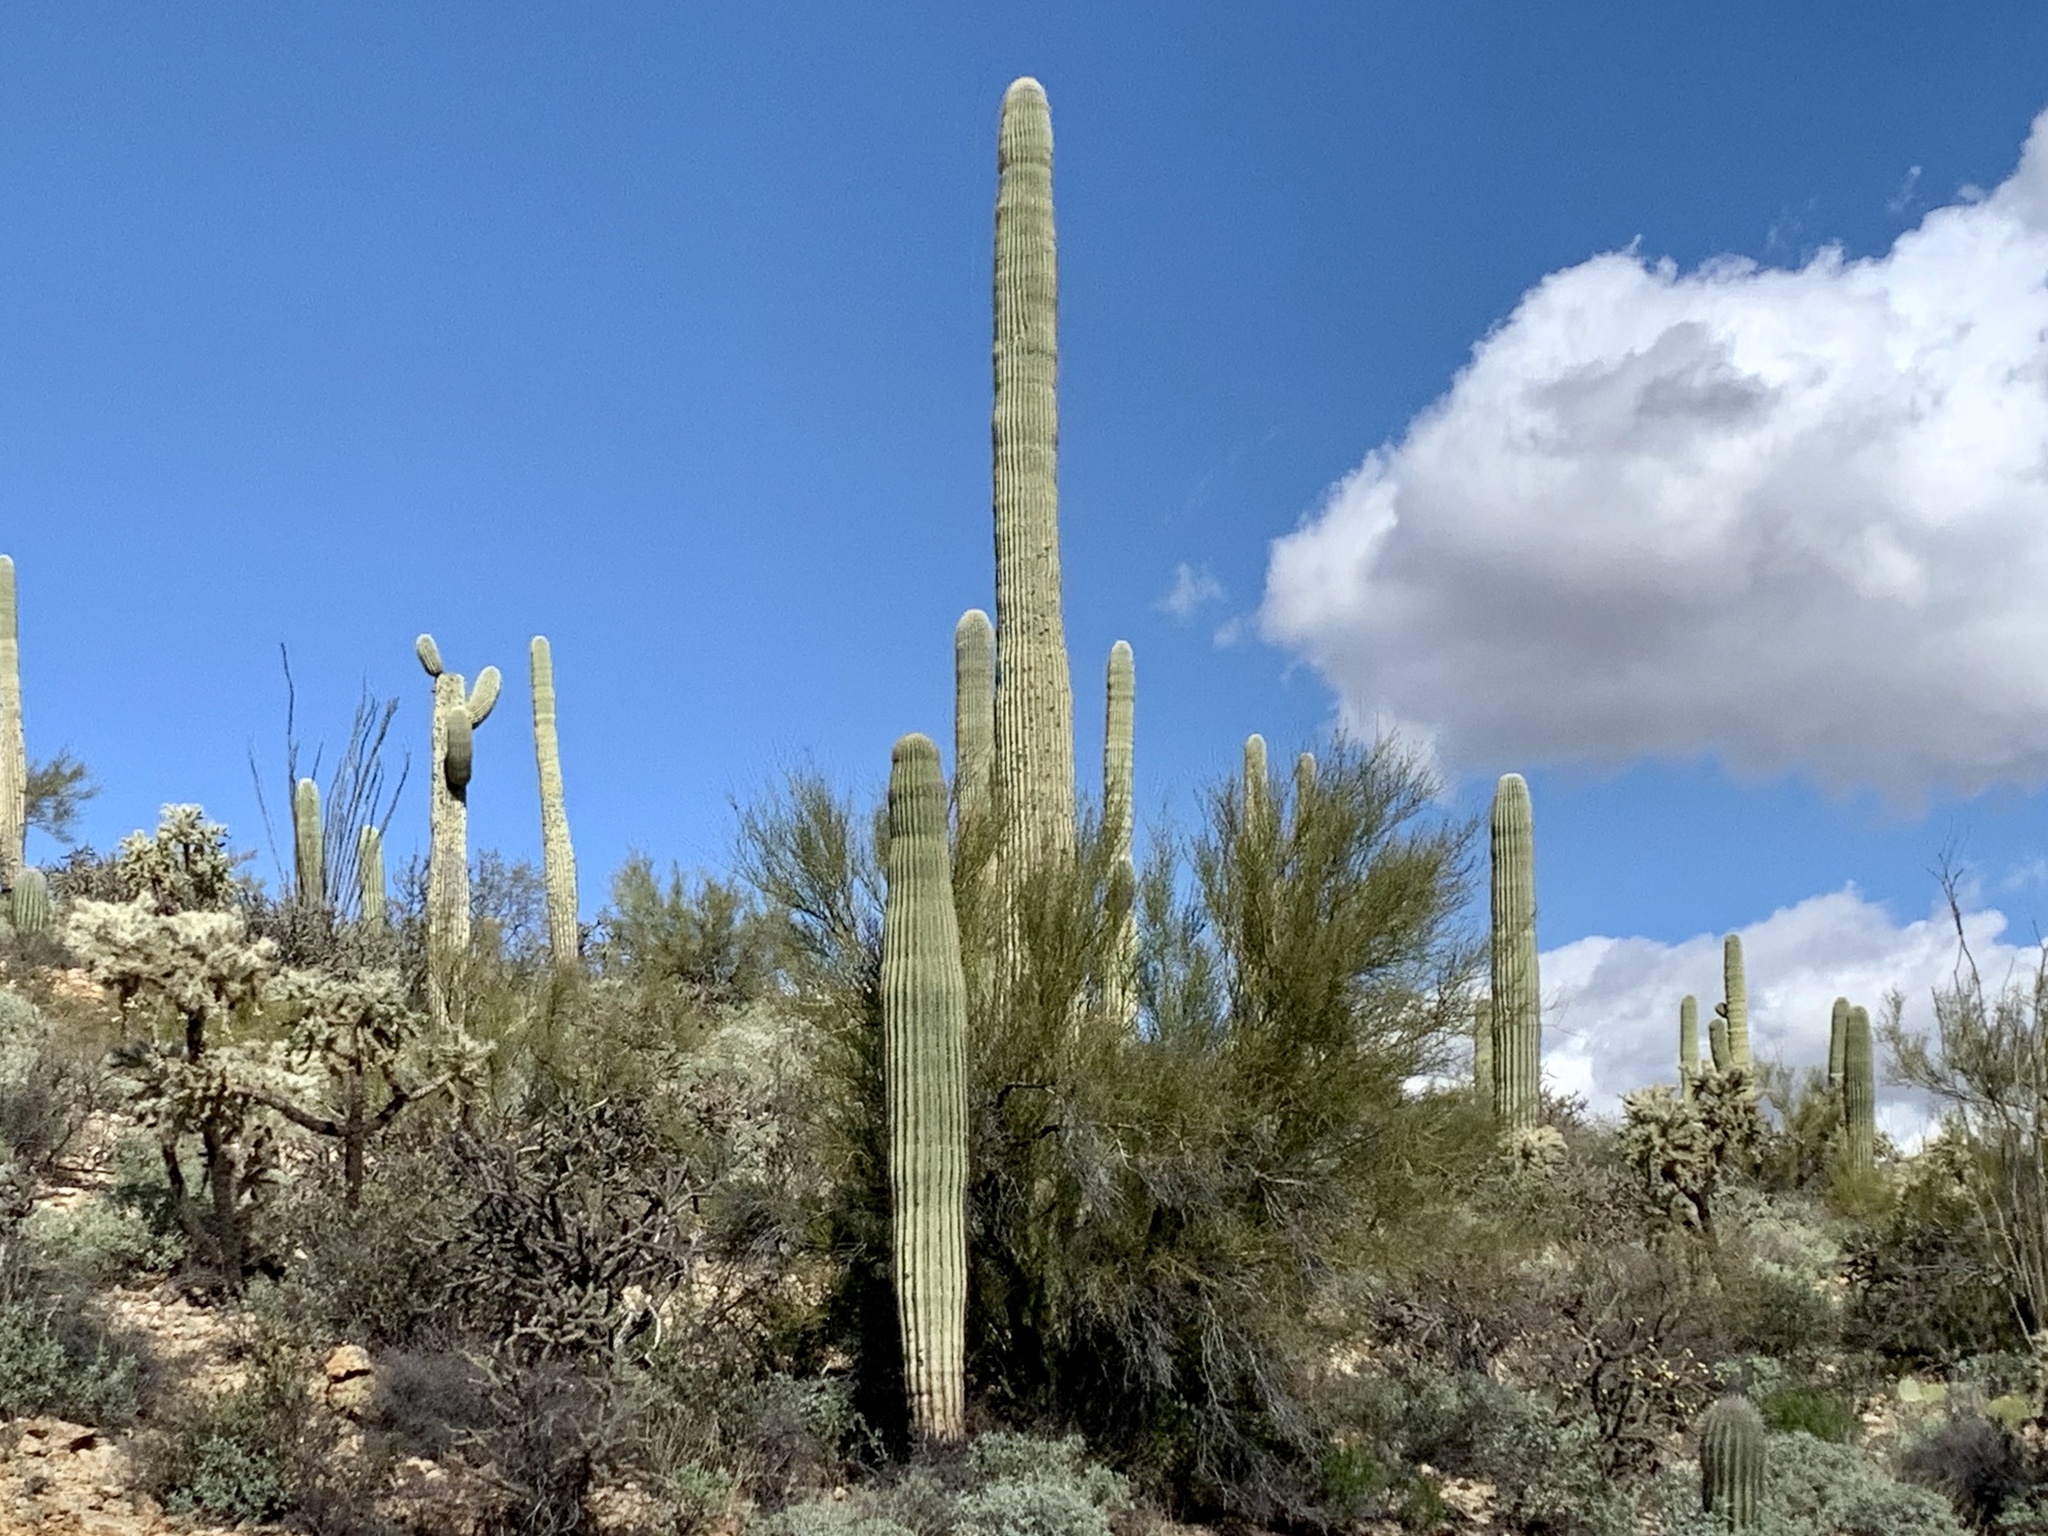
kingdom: Plantae
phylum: Tracheophyta
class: Magnoliopsida
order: Caryophyllales
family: Cactaceae
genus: Carnegiea
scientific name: Carnegiea gigantea
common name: Saguaro
